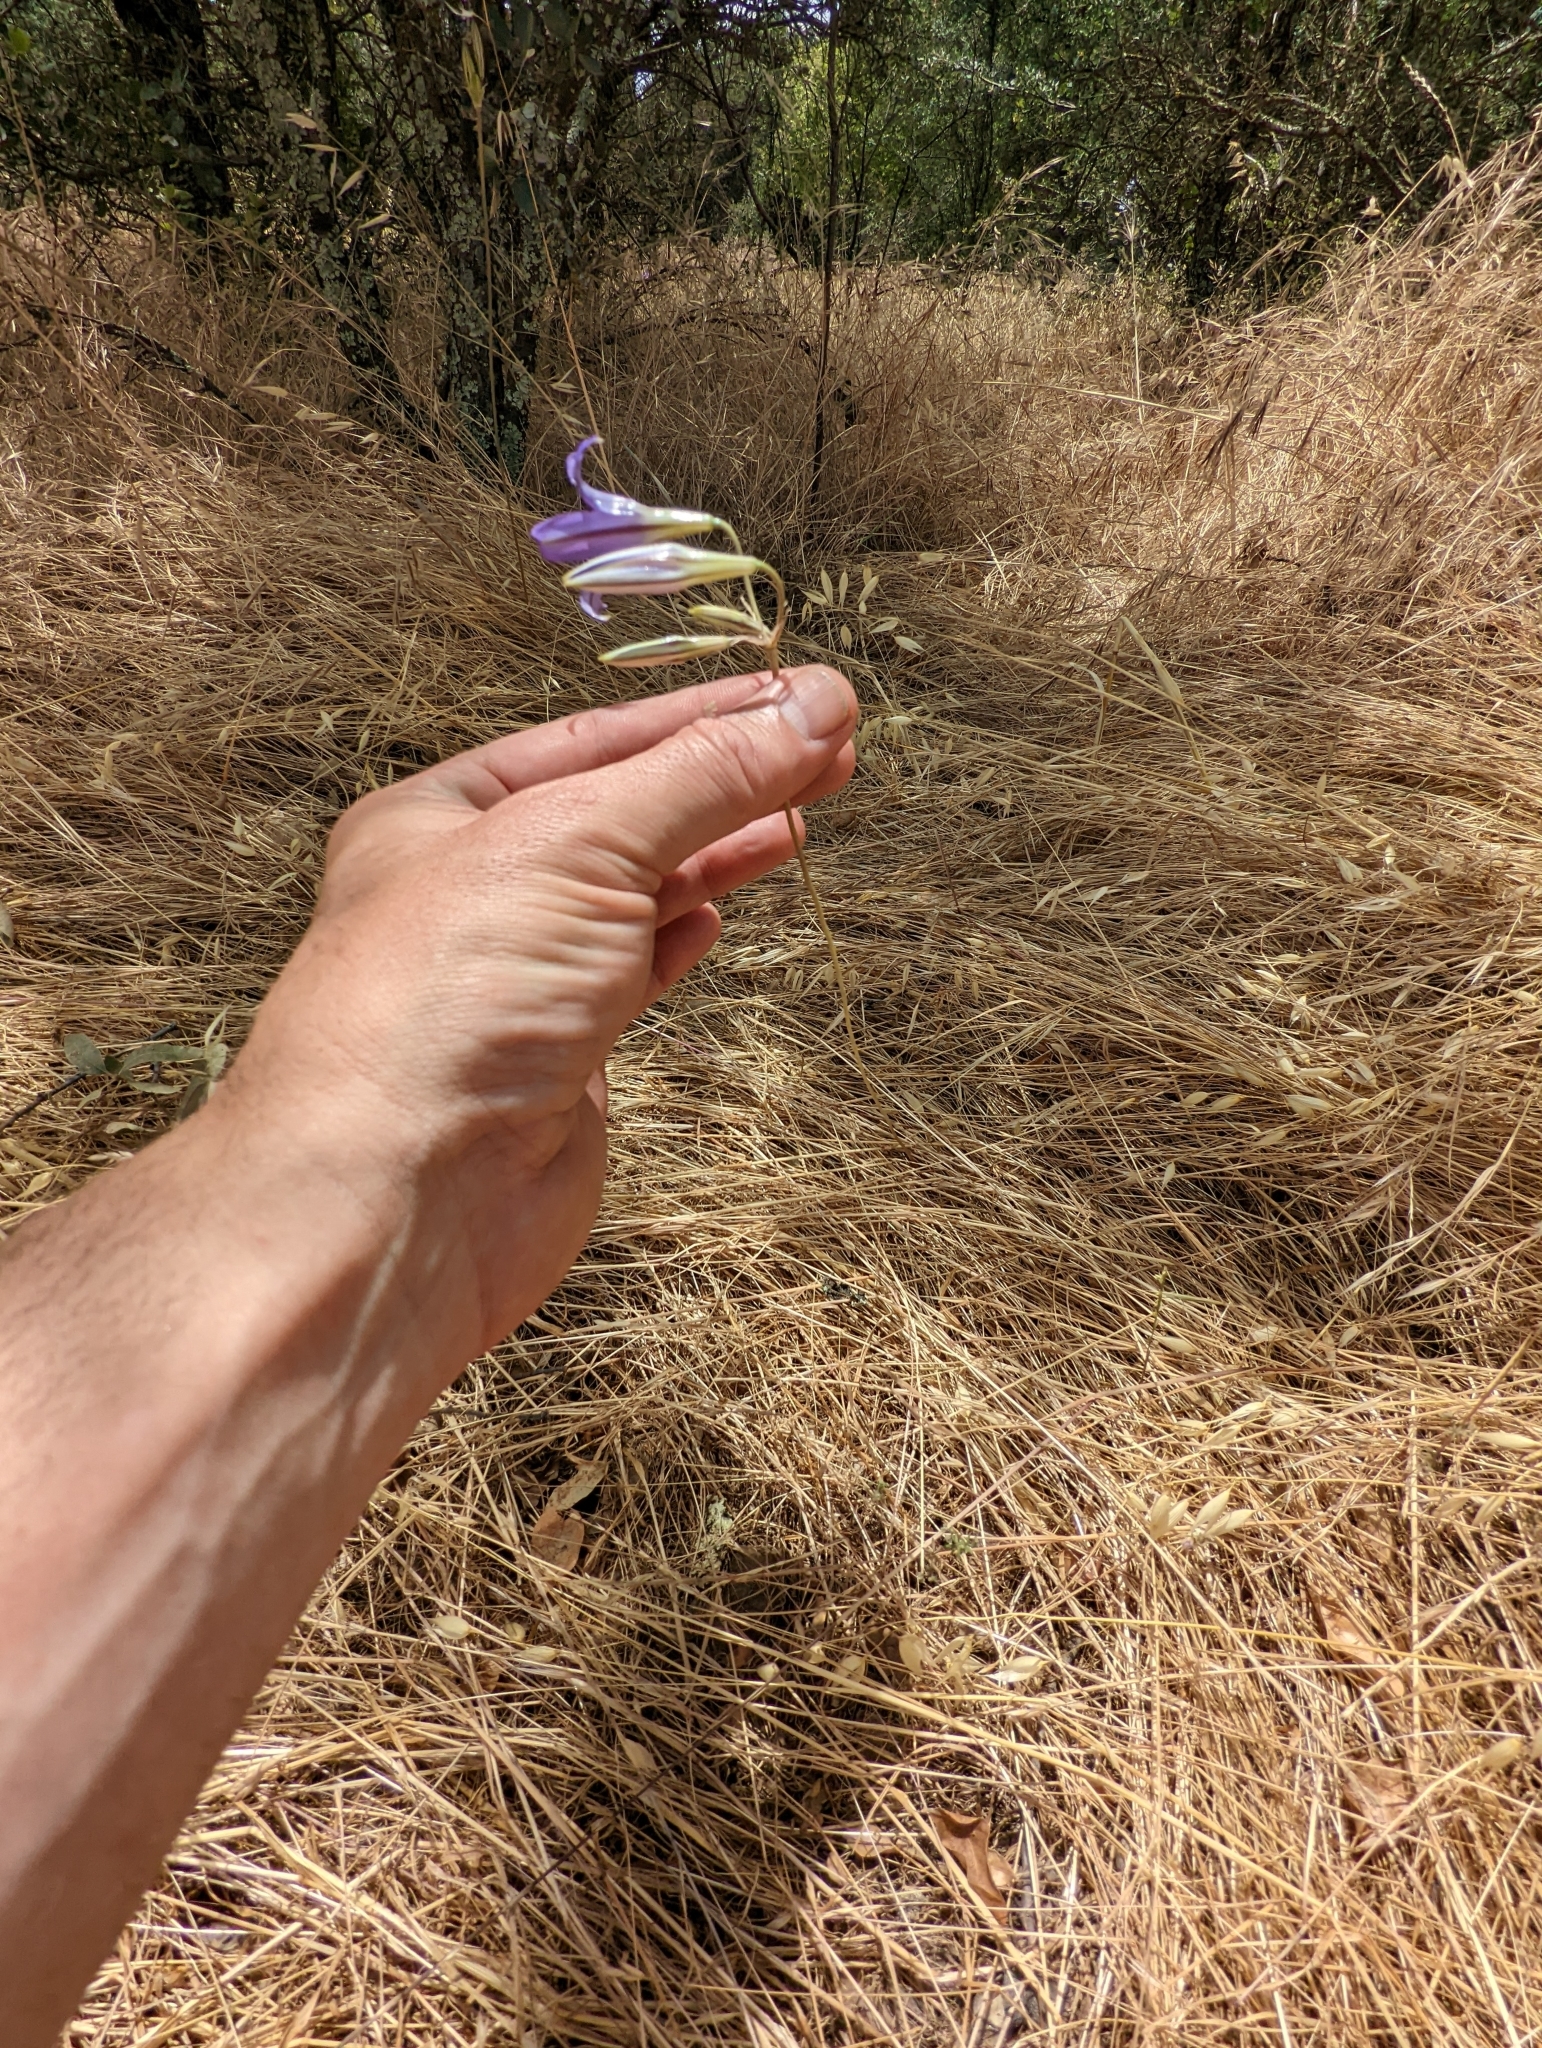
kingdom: Plantae
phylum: Tracheophyta
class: Liliopsida
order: Asparagales
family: Asparagaceae
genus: Brodiaea
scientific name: Brodiaea elegans
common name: Elegant cluster-lily
